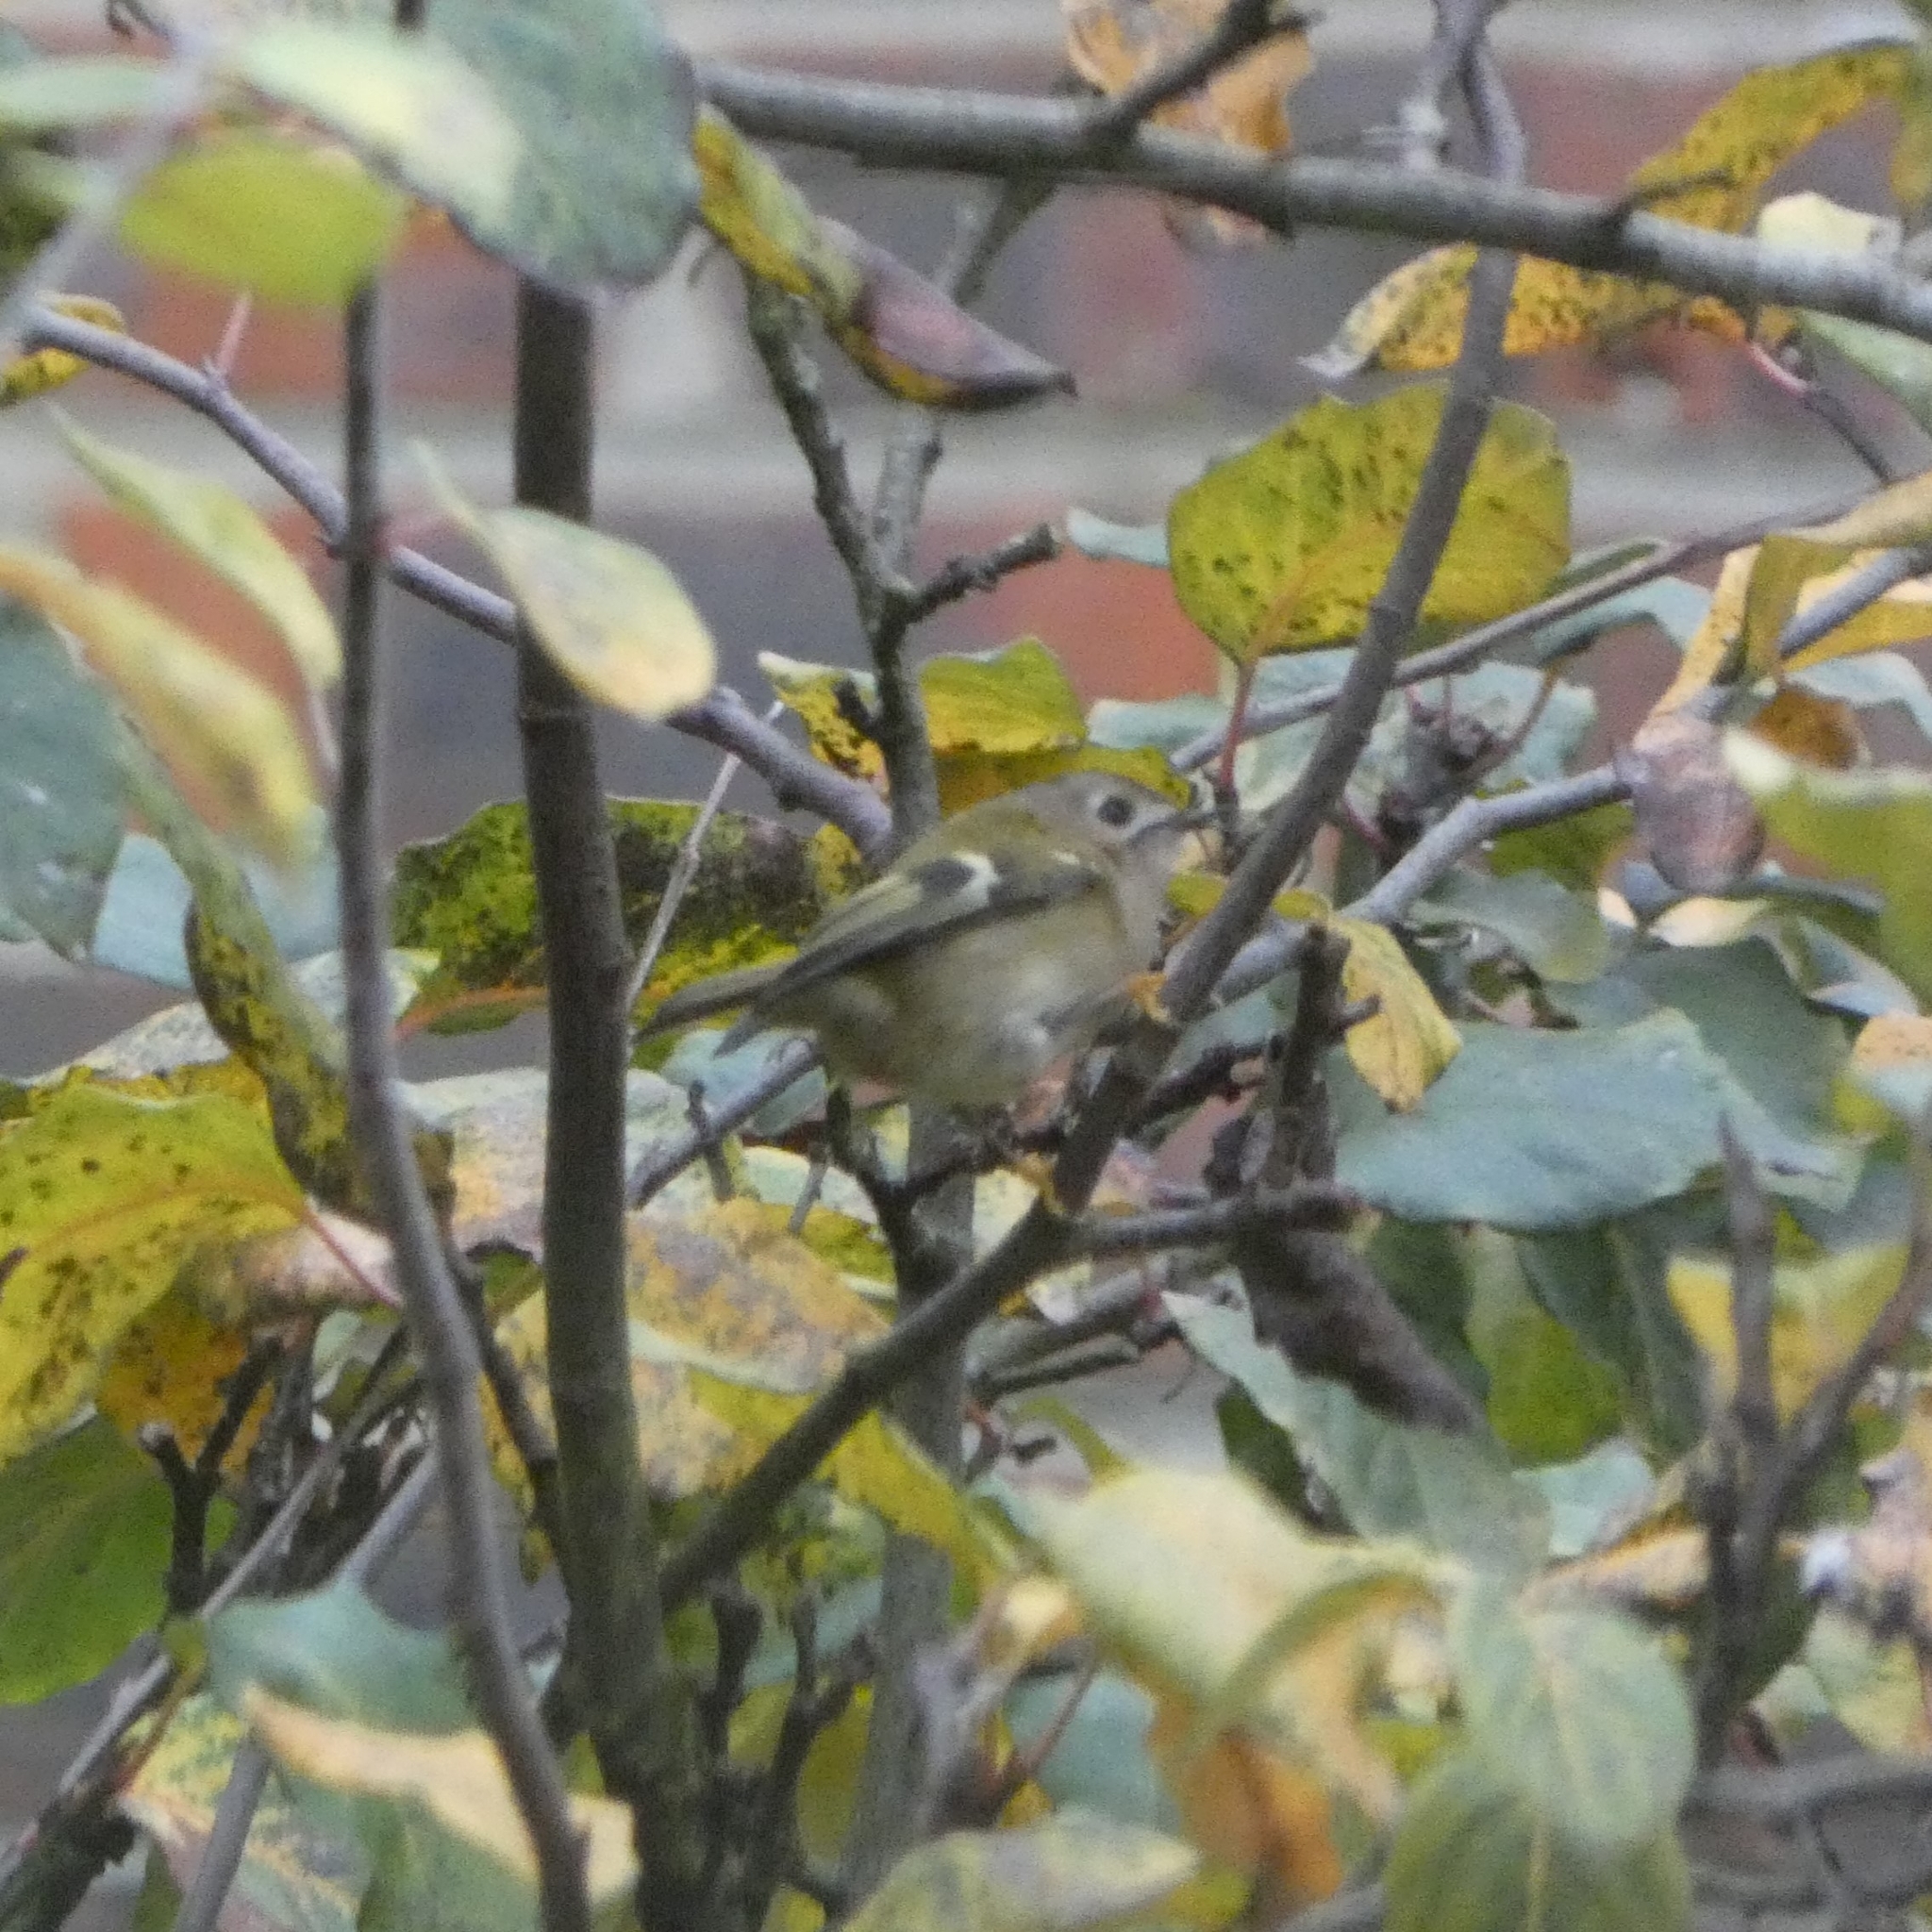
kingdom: Animalia
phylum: Chordata
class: Aves
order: Passeriformes
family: Regulidae
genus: Regulus
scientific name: Regulus regulus
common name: Goldcrest
